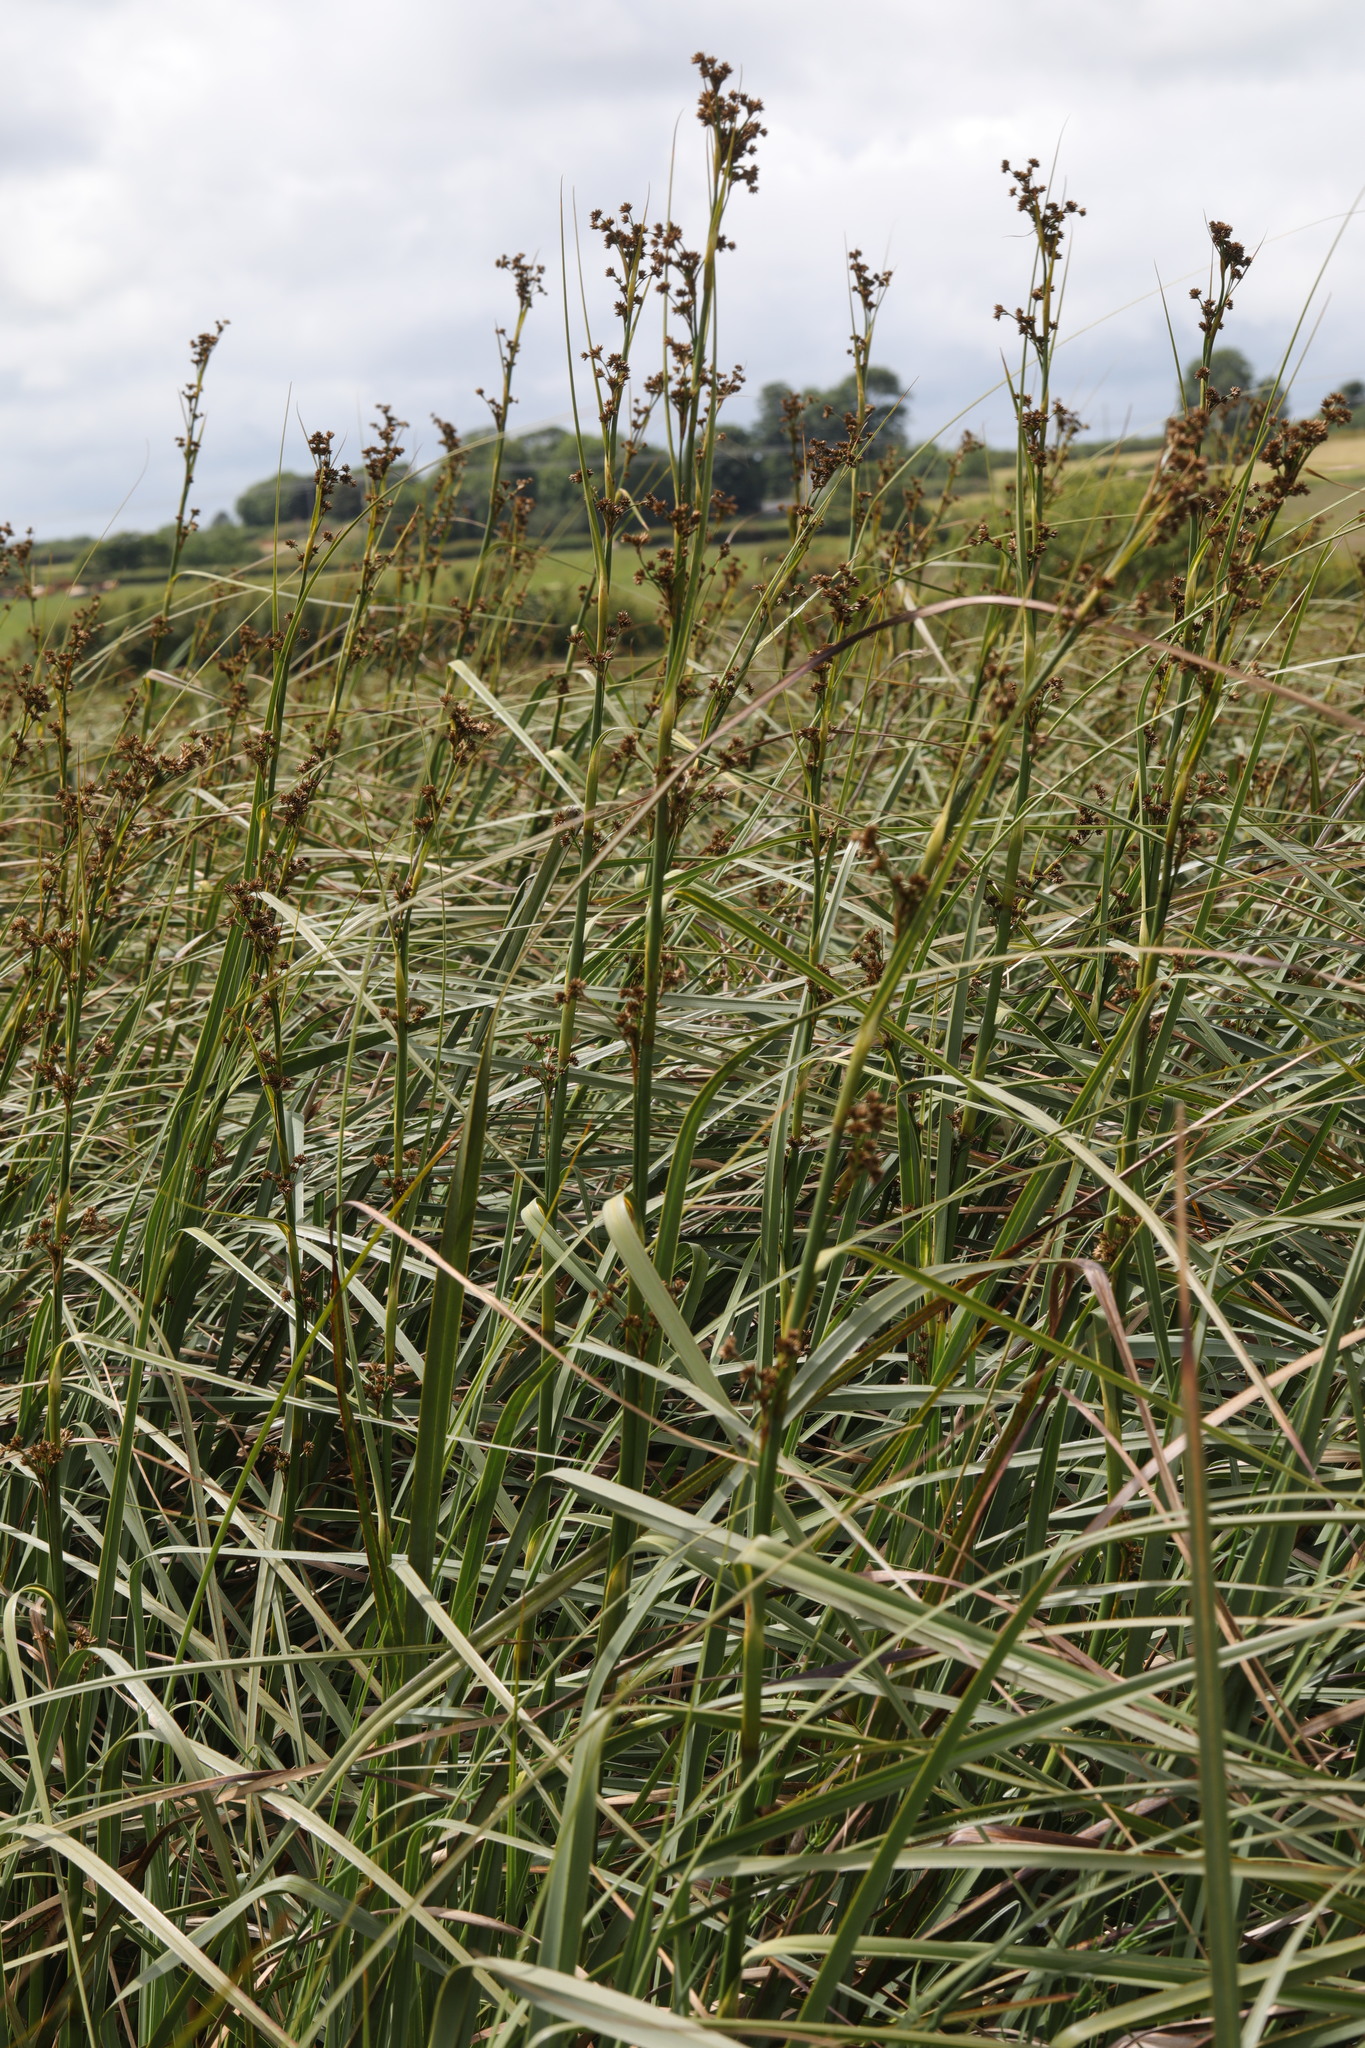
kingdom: Plantae
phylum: Tracheophyta
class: Liliopsida
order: Poales
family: Cyperaceae
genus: Cladium
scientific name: Cladium mariscus
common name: Great fen-sedge
